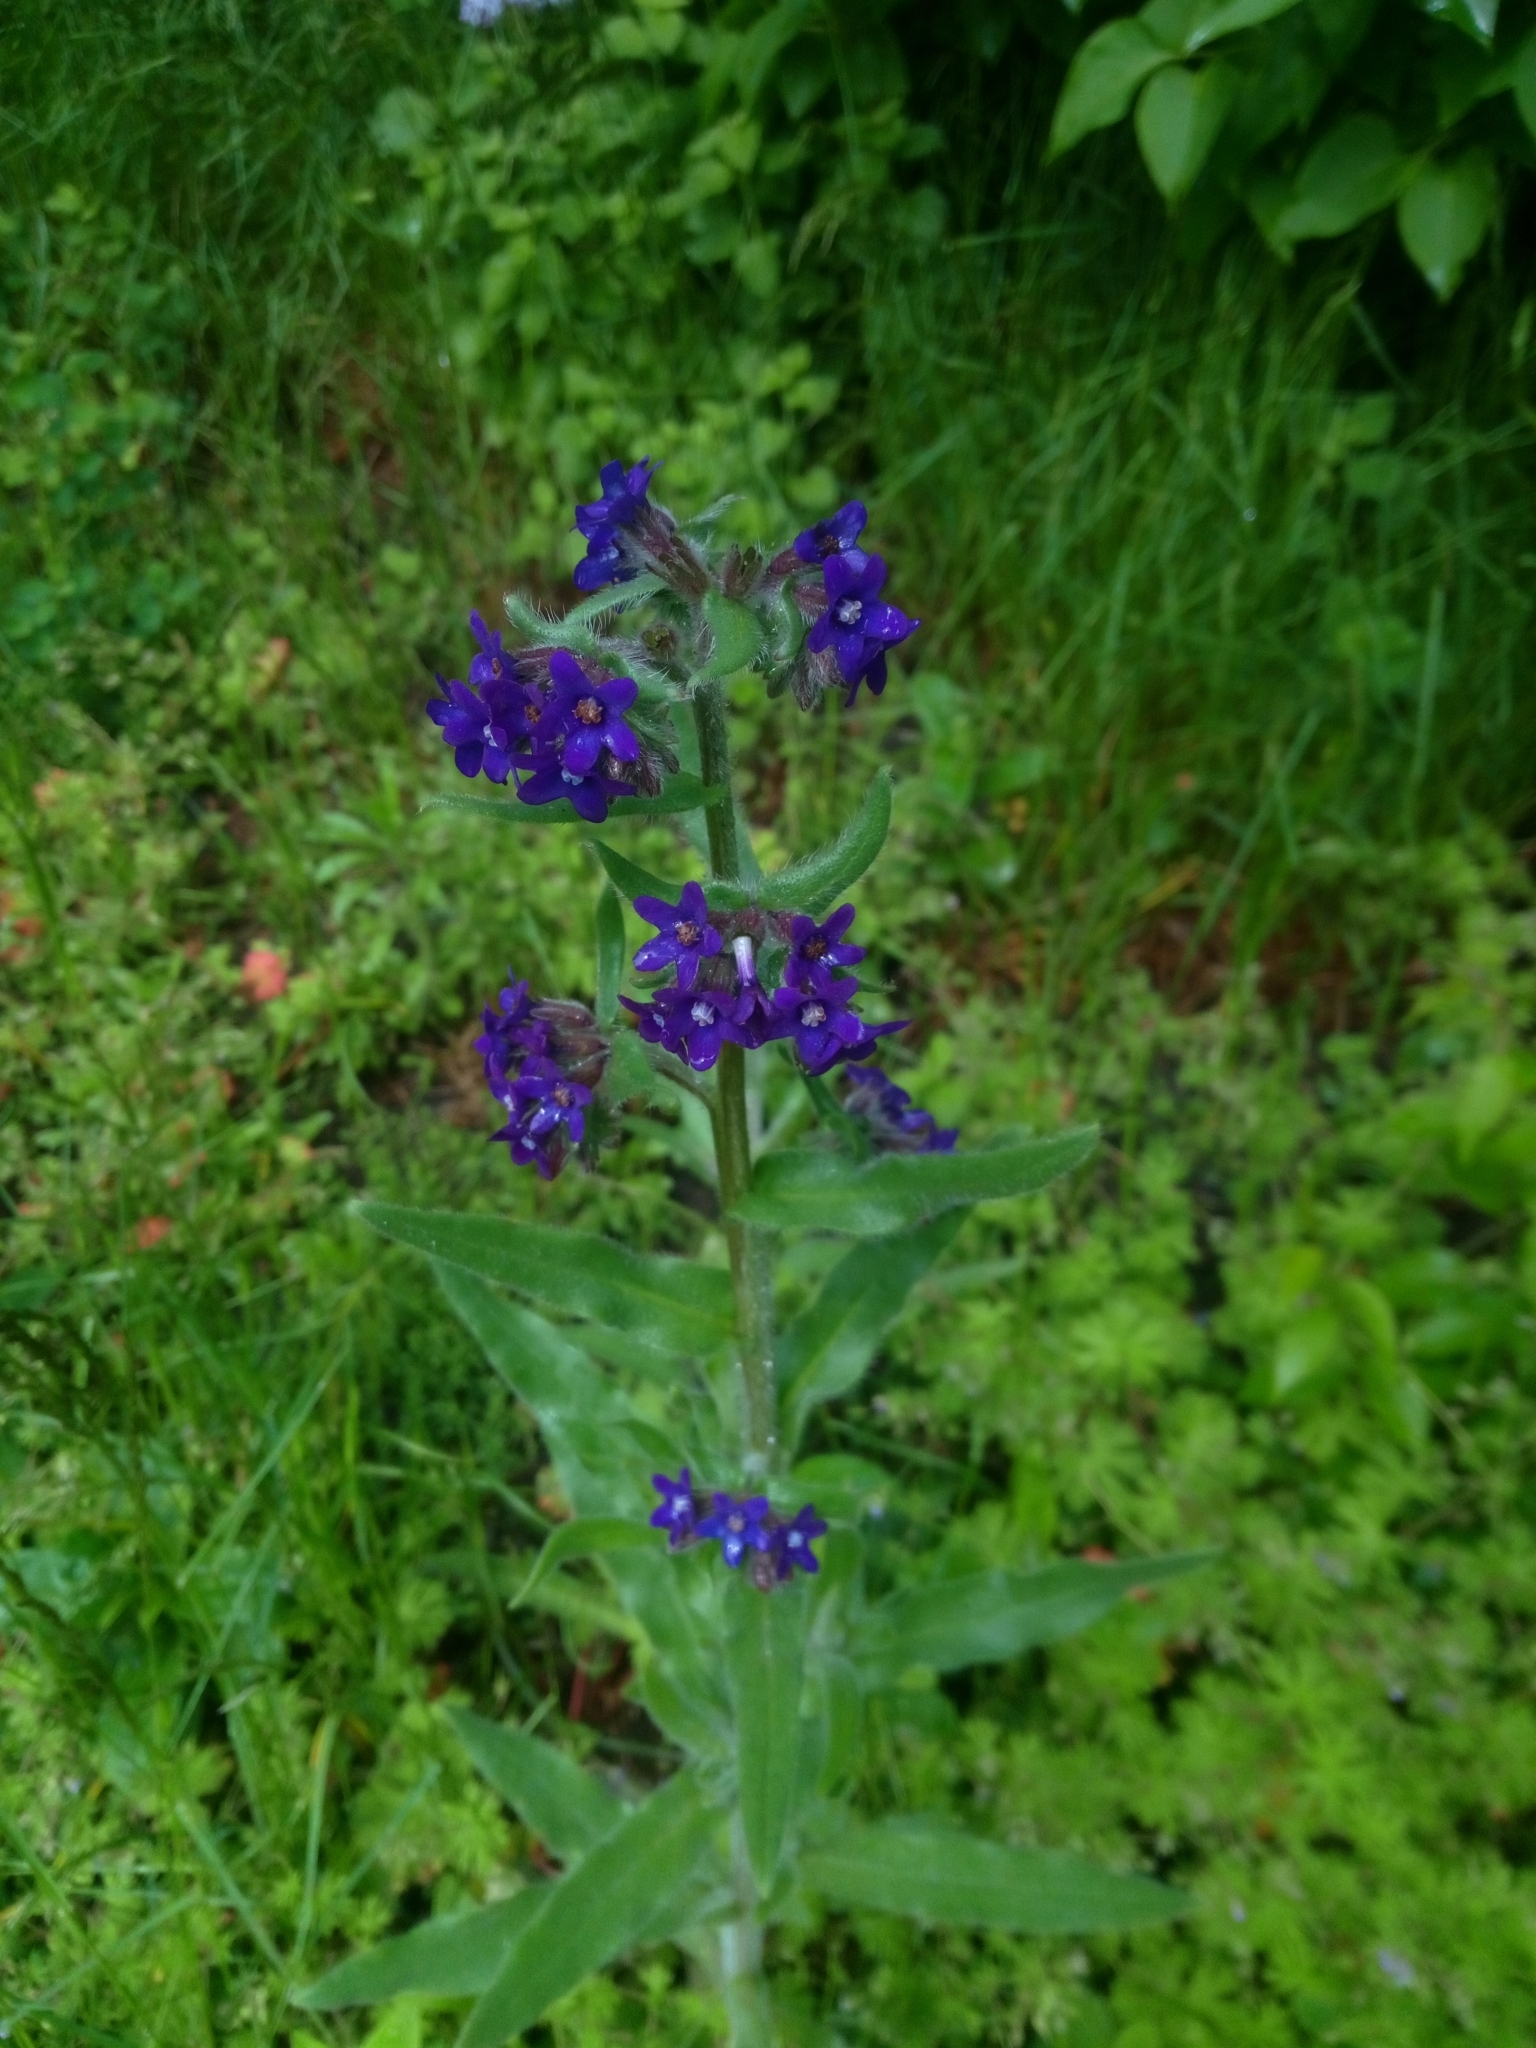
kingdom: Plantae
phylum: Tracheophyta
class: Magnoliopsida
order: Boraginales
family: Boraginaceae
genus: Anchusa
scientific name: Anchusa officinalis
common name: Alkanet
